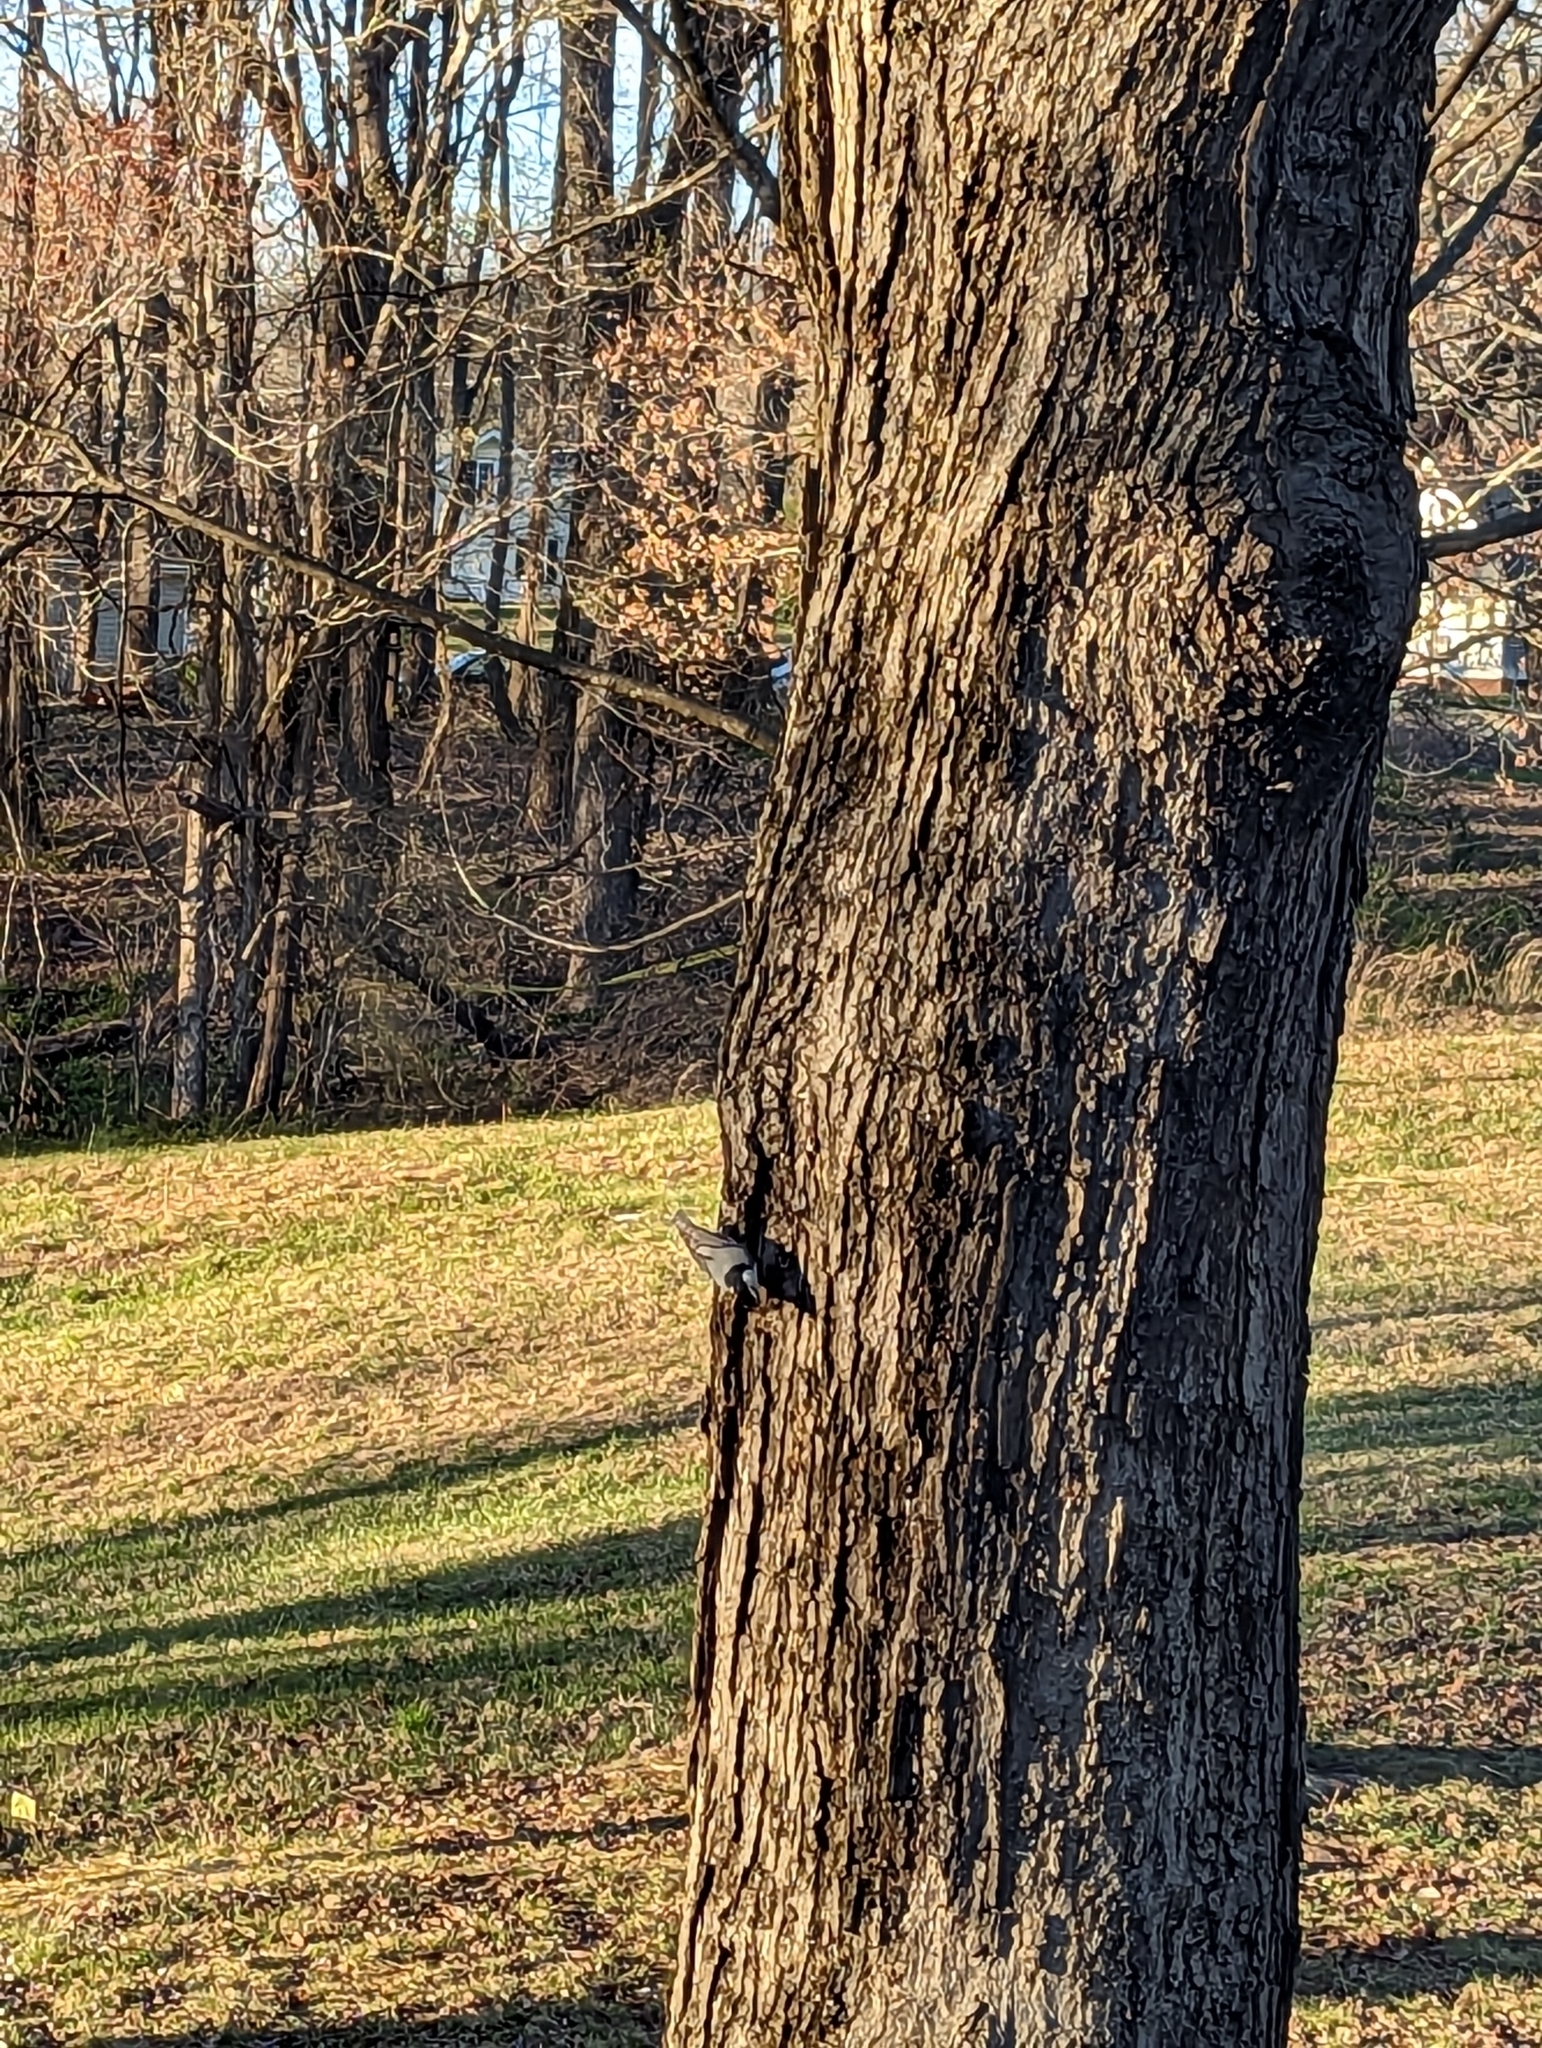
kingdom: Animalia
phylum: Chordata
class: Aves
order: Passeriformes
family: Sittidae
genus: Sitta
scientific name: Sitta carolinensis
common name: White-breasted nuthatch
